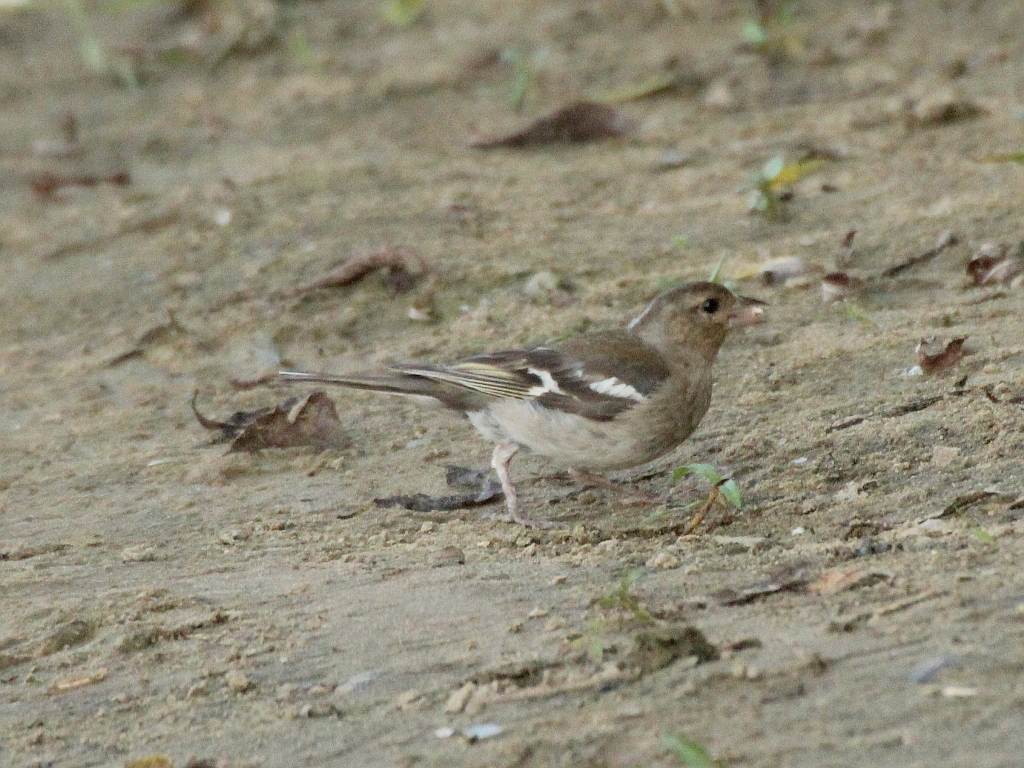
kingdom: Animalia
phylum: Chordata
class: Aves
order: Passeriformes
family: Fringillidae
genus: Fringilla
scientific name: Fringilla coelebs
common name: Common chaffinch
